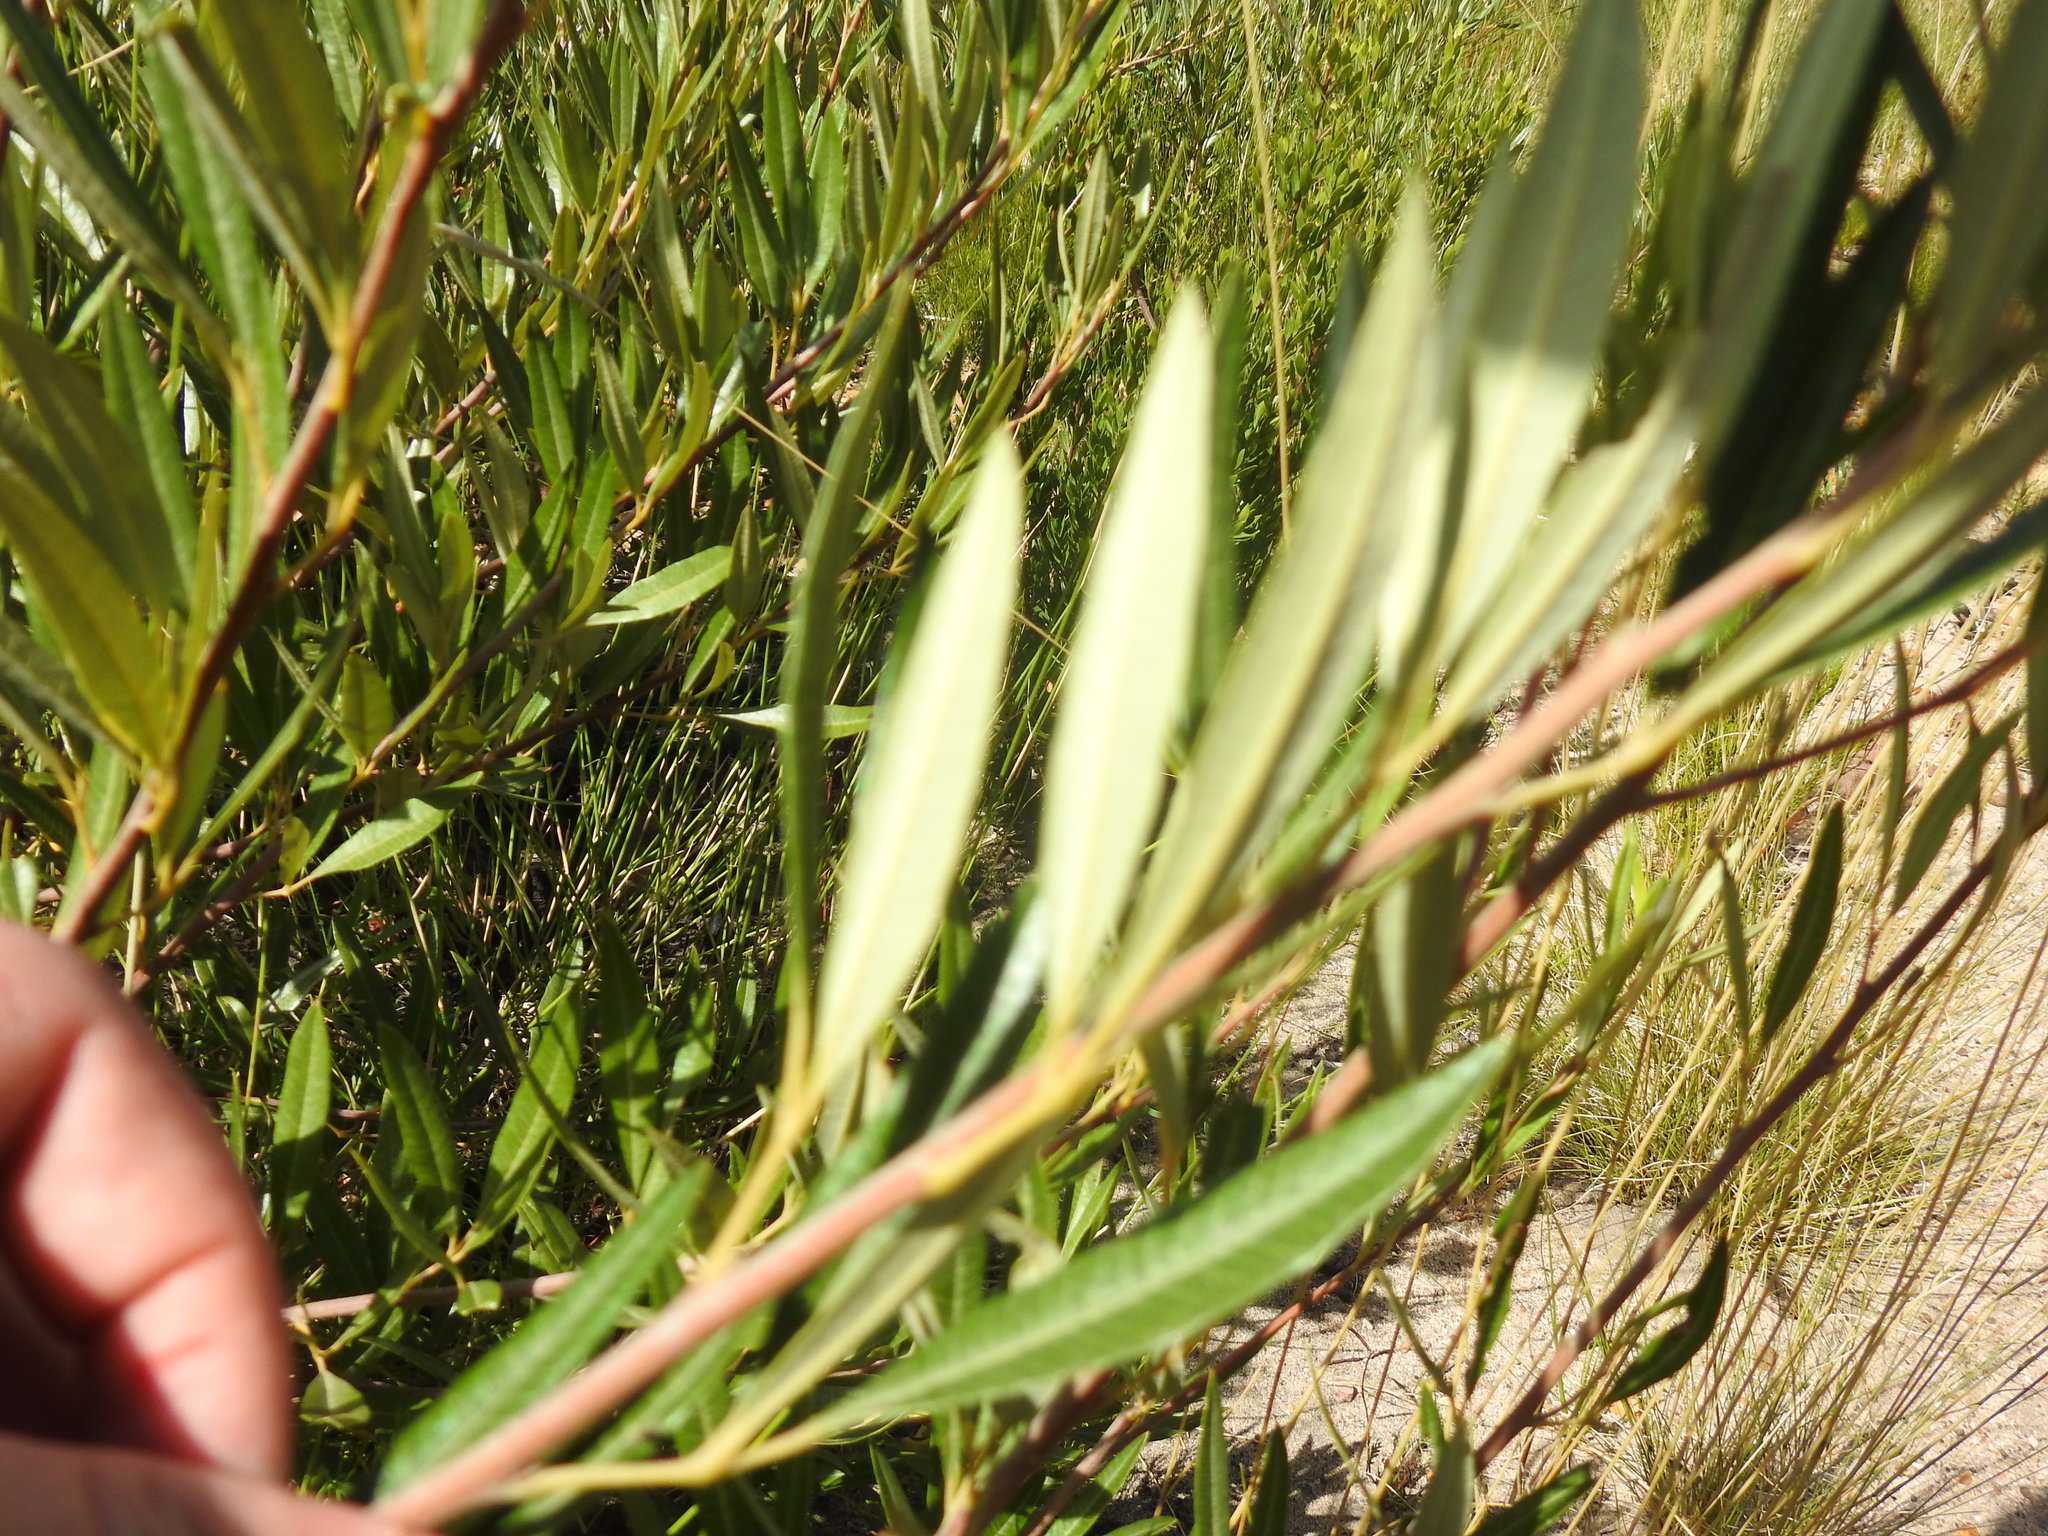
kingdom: Plantae
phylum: Tracheophyta
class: Magnoliopsida
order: Sapindales
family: Anacardiaceae
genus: Searsia
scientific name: Searsia angustifolia
